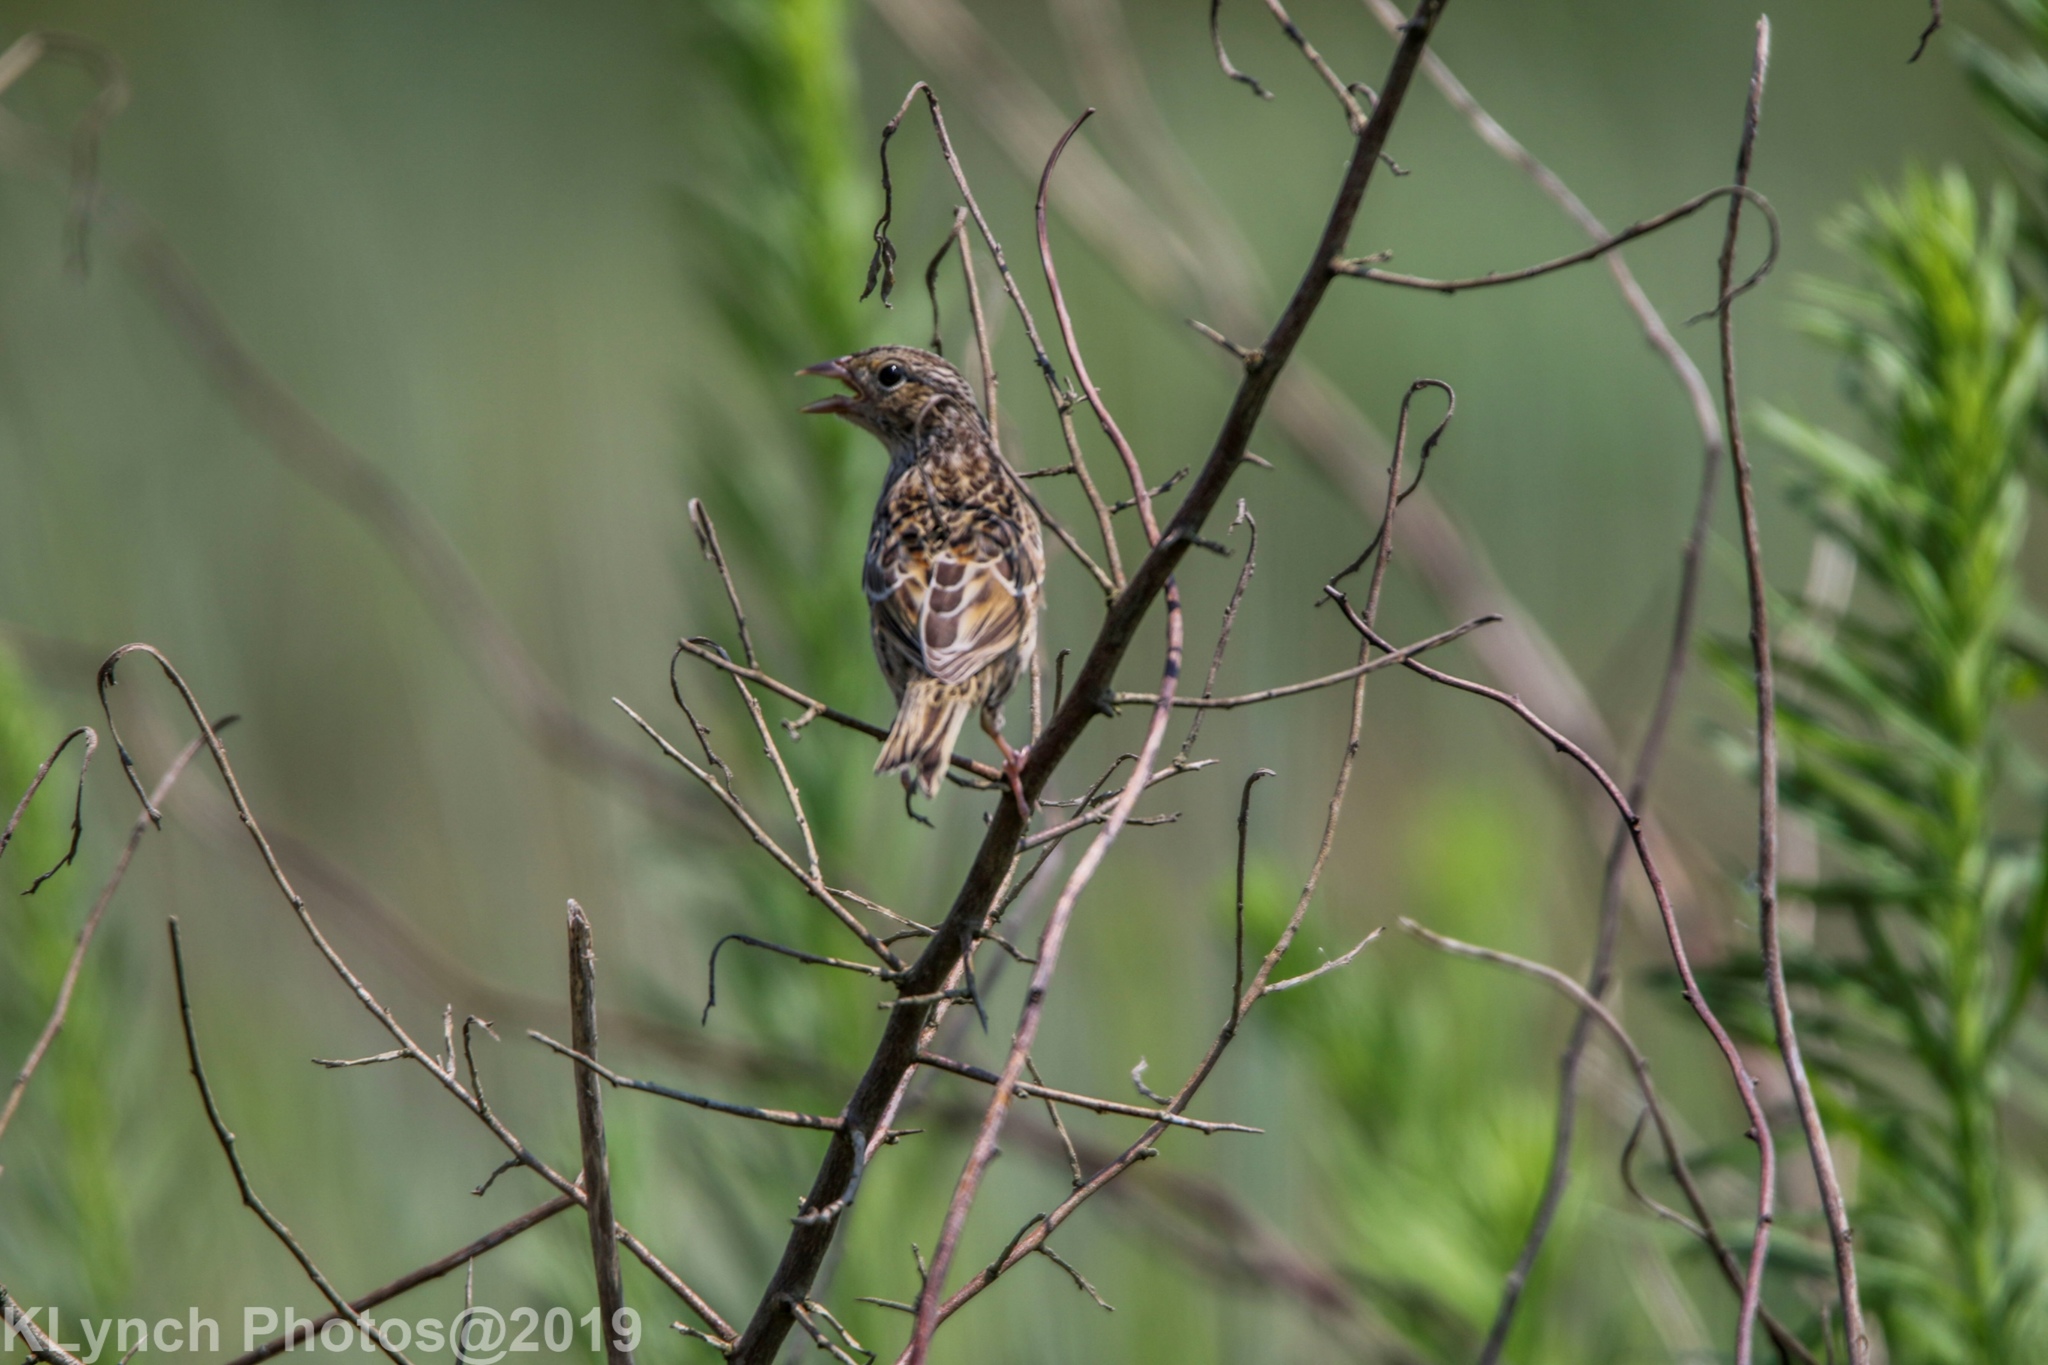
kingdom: Animalia
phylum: Chordata
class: Aves
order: Passeriformes
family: Passerellidae
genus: Ammodramus
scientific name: Ammodramus savannarum
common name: Grasshopper sparrow
